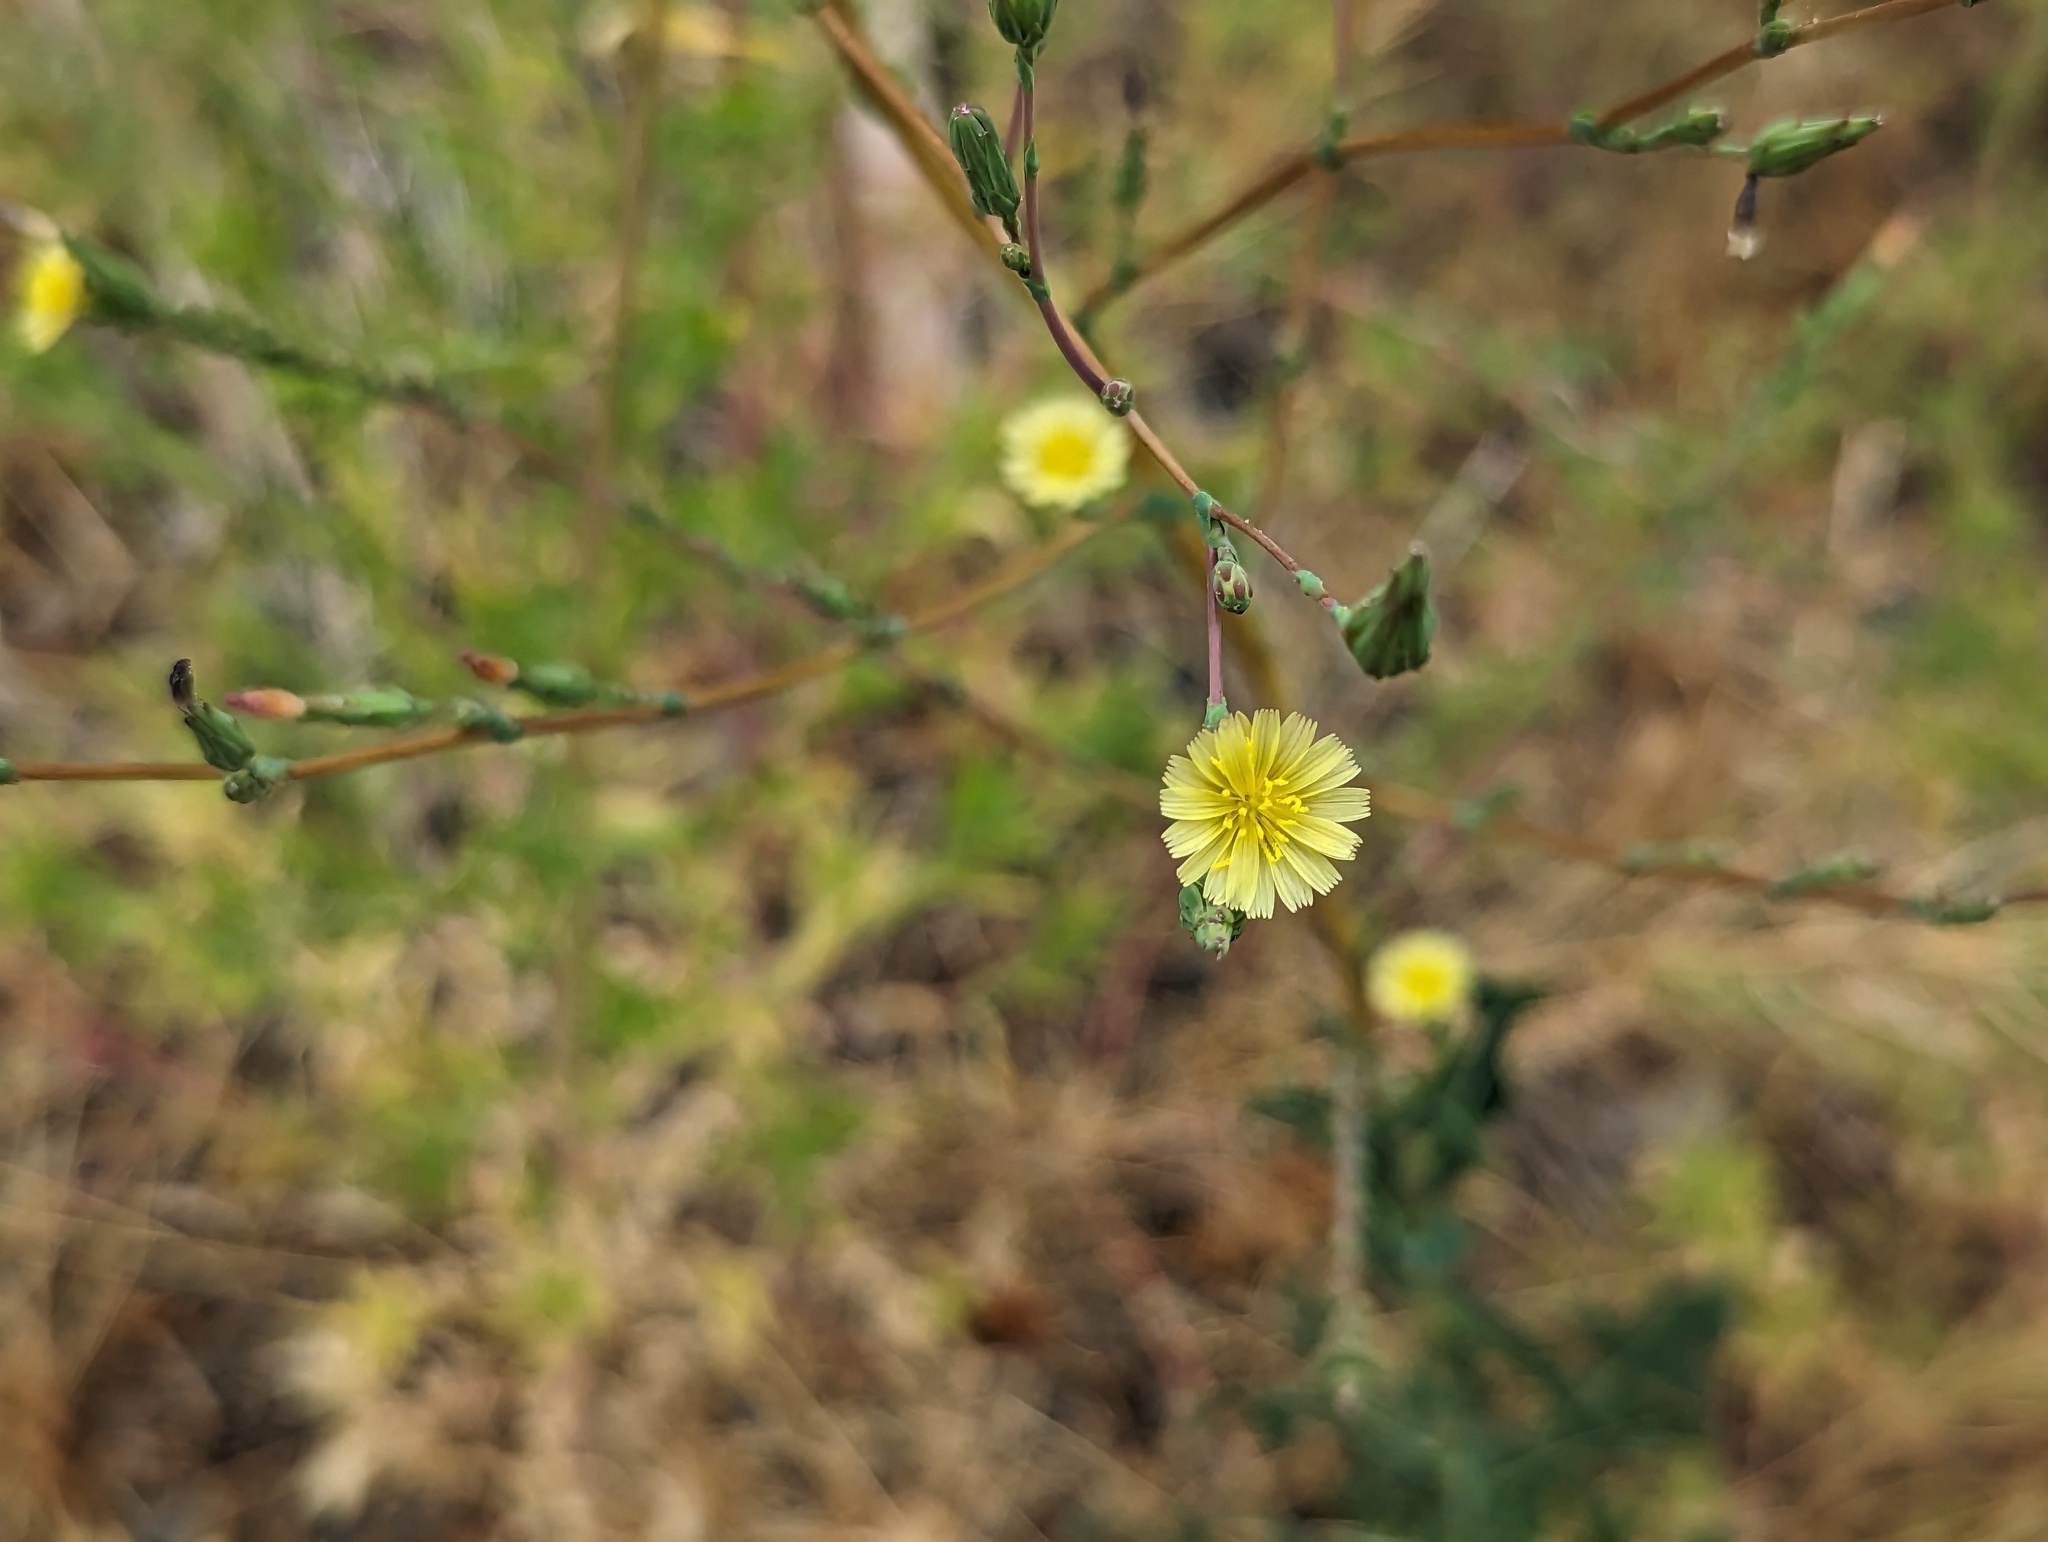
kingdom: Plantae
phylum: Tracheophyta
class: Magnoliopsida
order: Asterales
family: Asteraceae
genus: Lactuca
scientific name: Lactuca serriola
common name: Prickly lettuce
